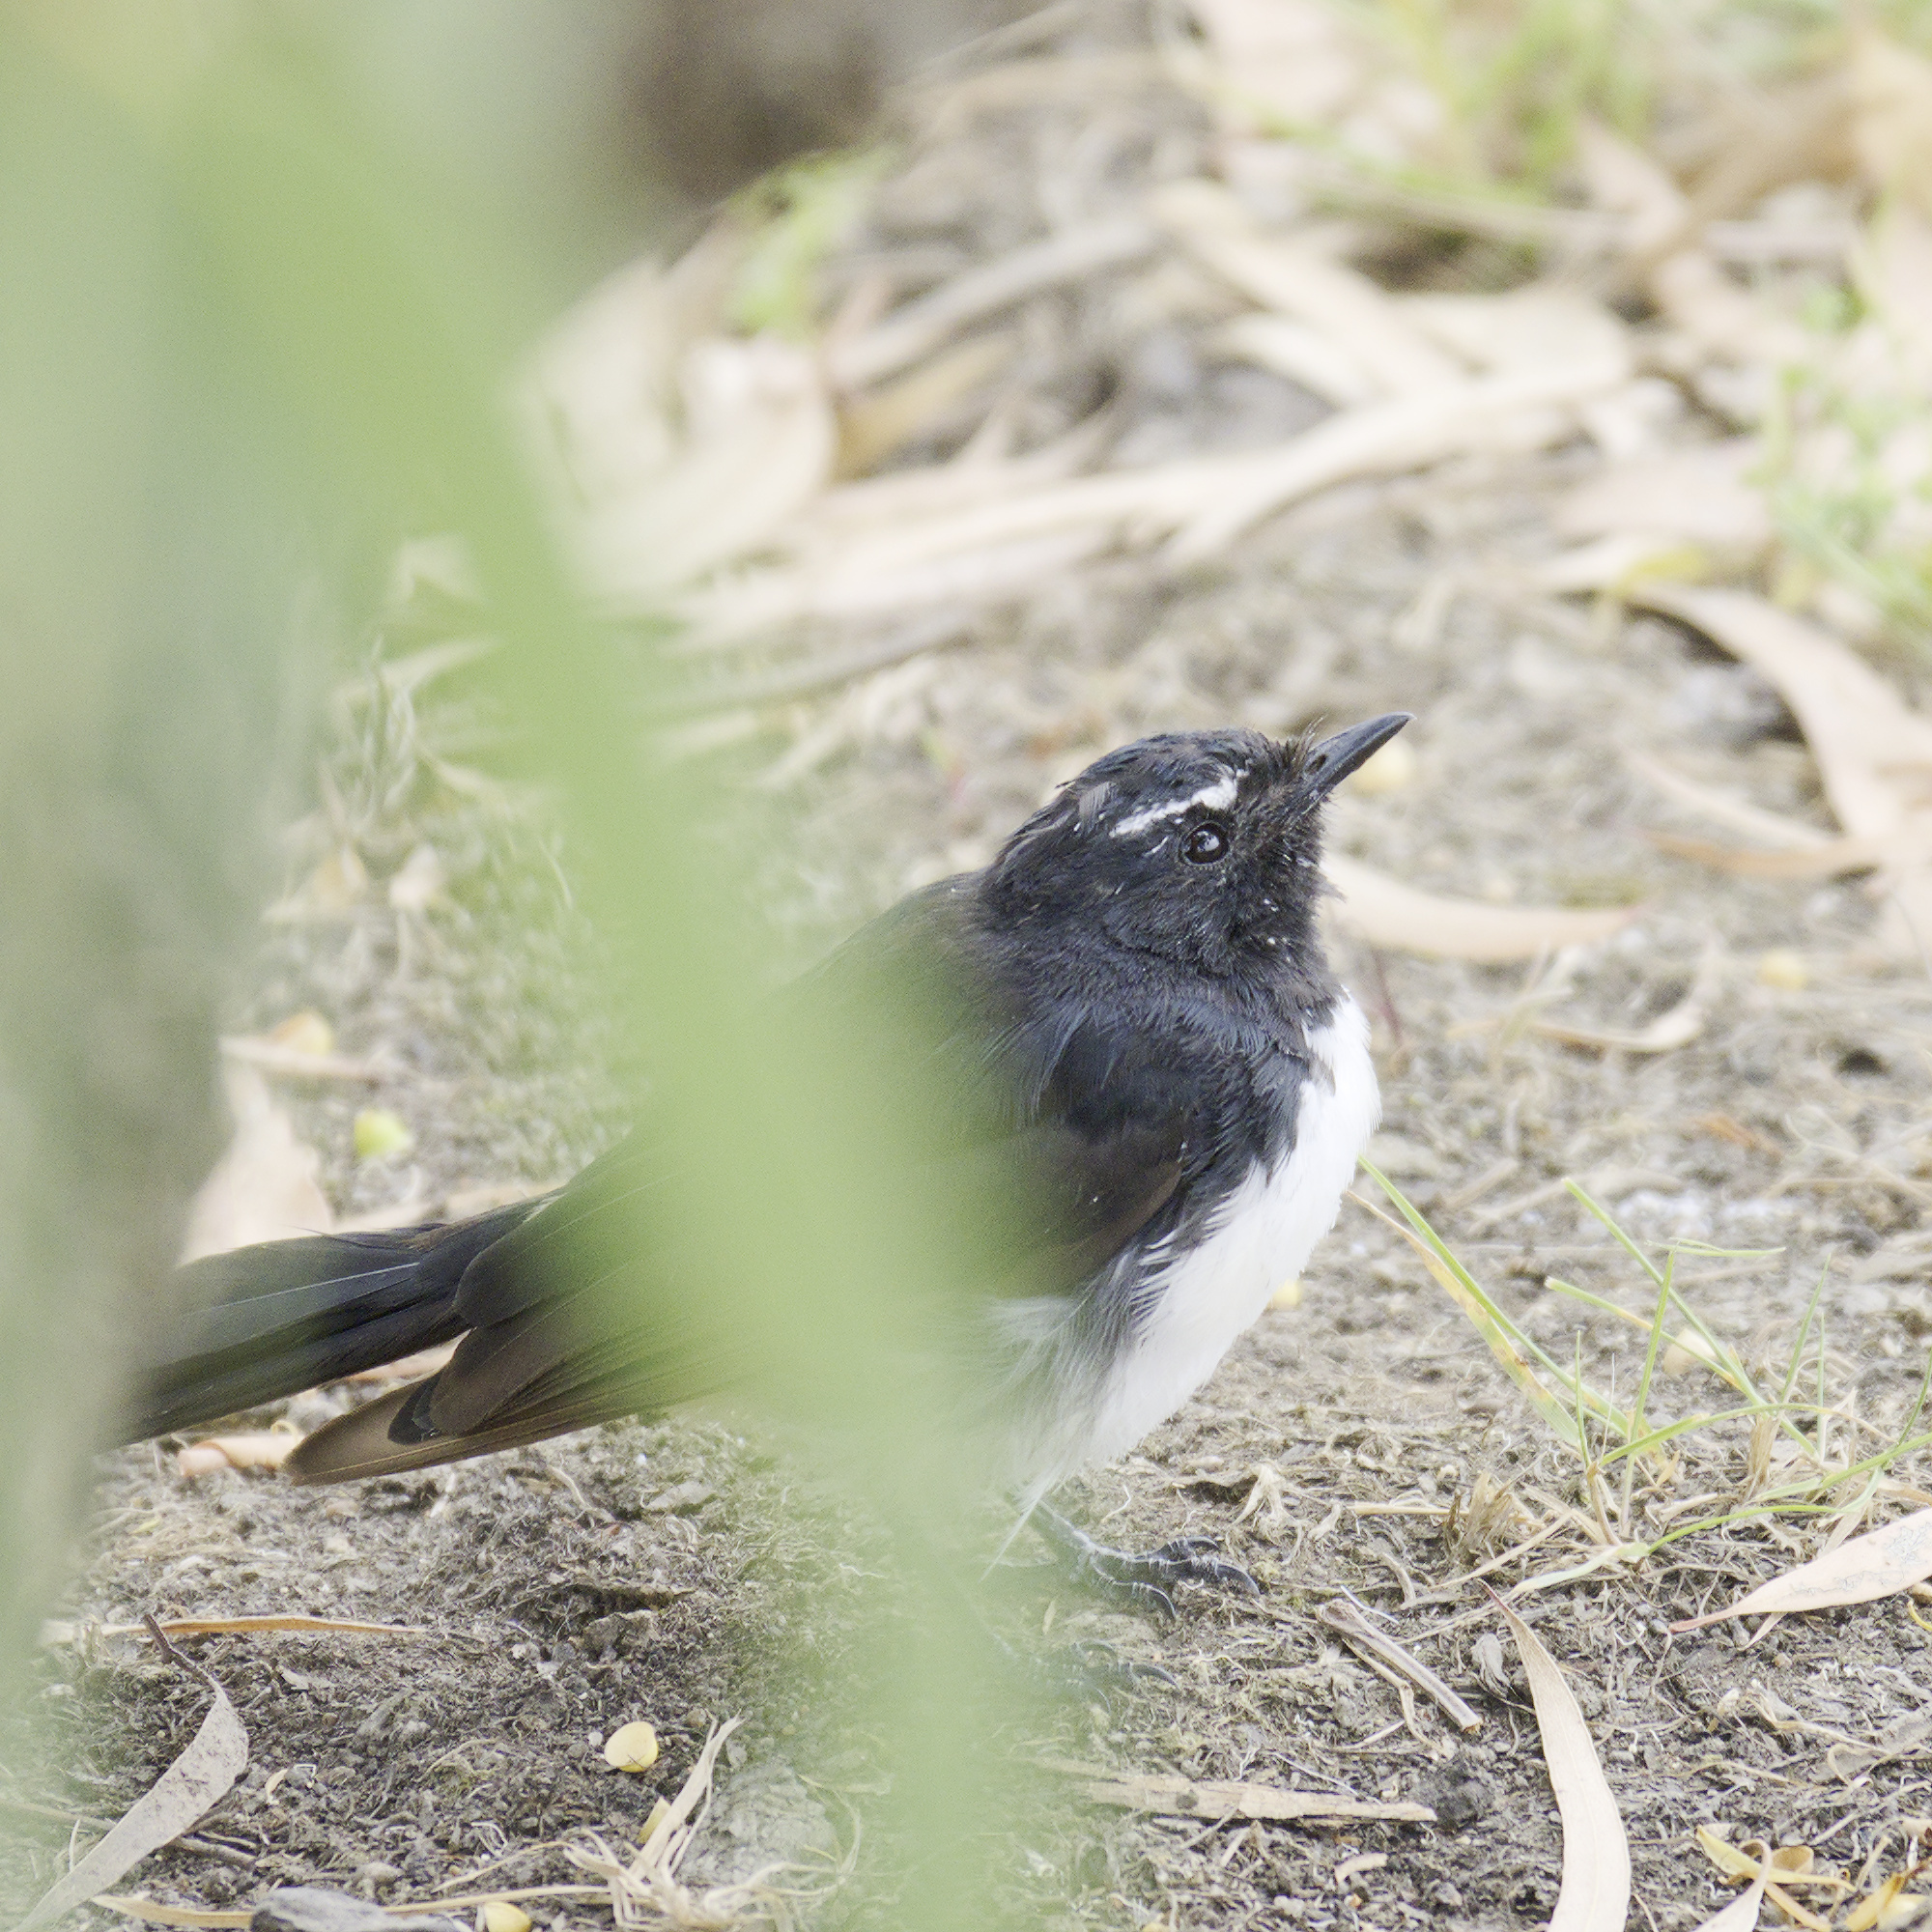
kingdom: Animalia
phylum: Chordata
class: Aves
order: Passeriformes
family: Rhipiduridae
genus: Rhipidura
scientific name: Rhipidura leucophrys
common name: Willie wagtail
